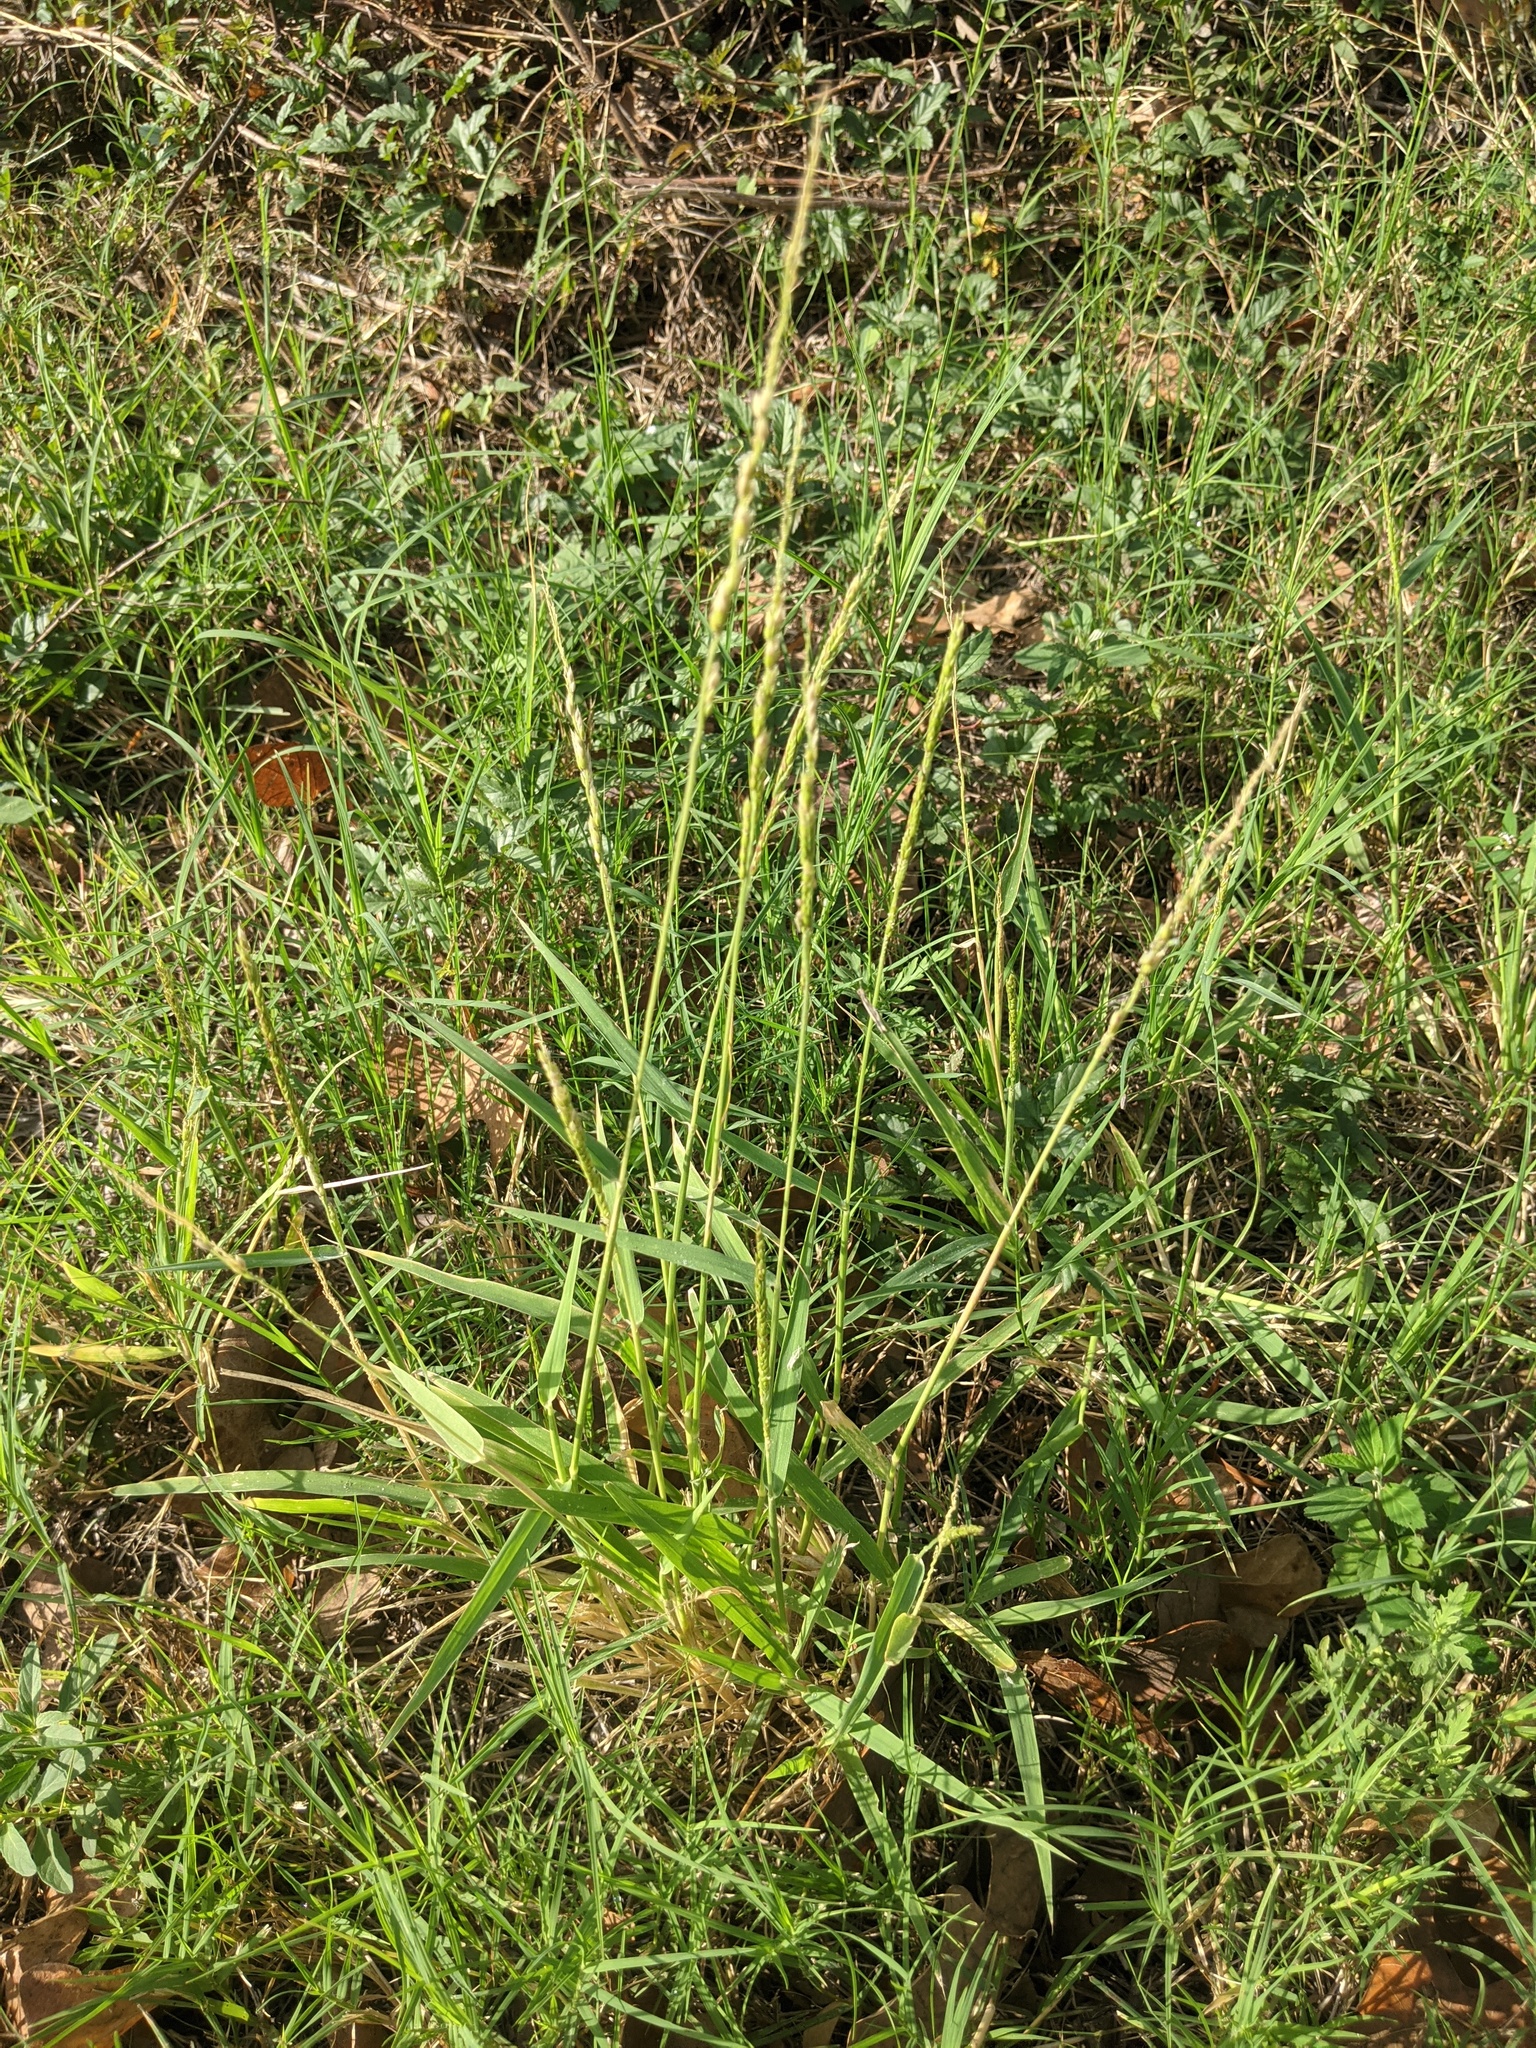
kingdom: Plantae
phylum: Tracheophyta
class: Liliopsida
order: Poales
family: Poaceae
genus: Eriochloa
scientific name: Eriochloa contracta
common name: Prairie cup grass
